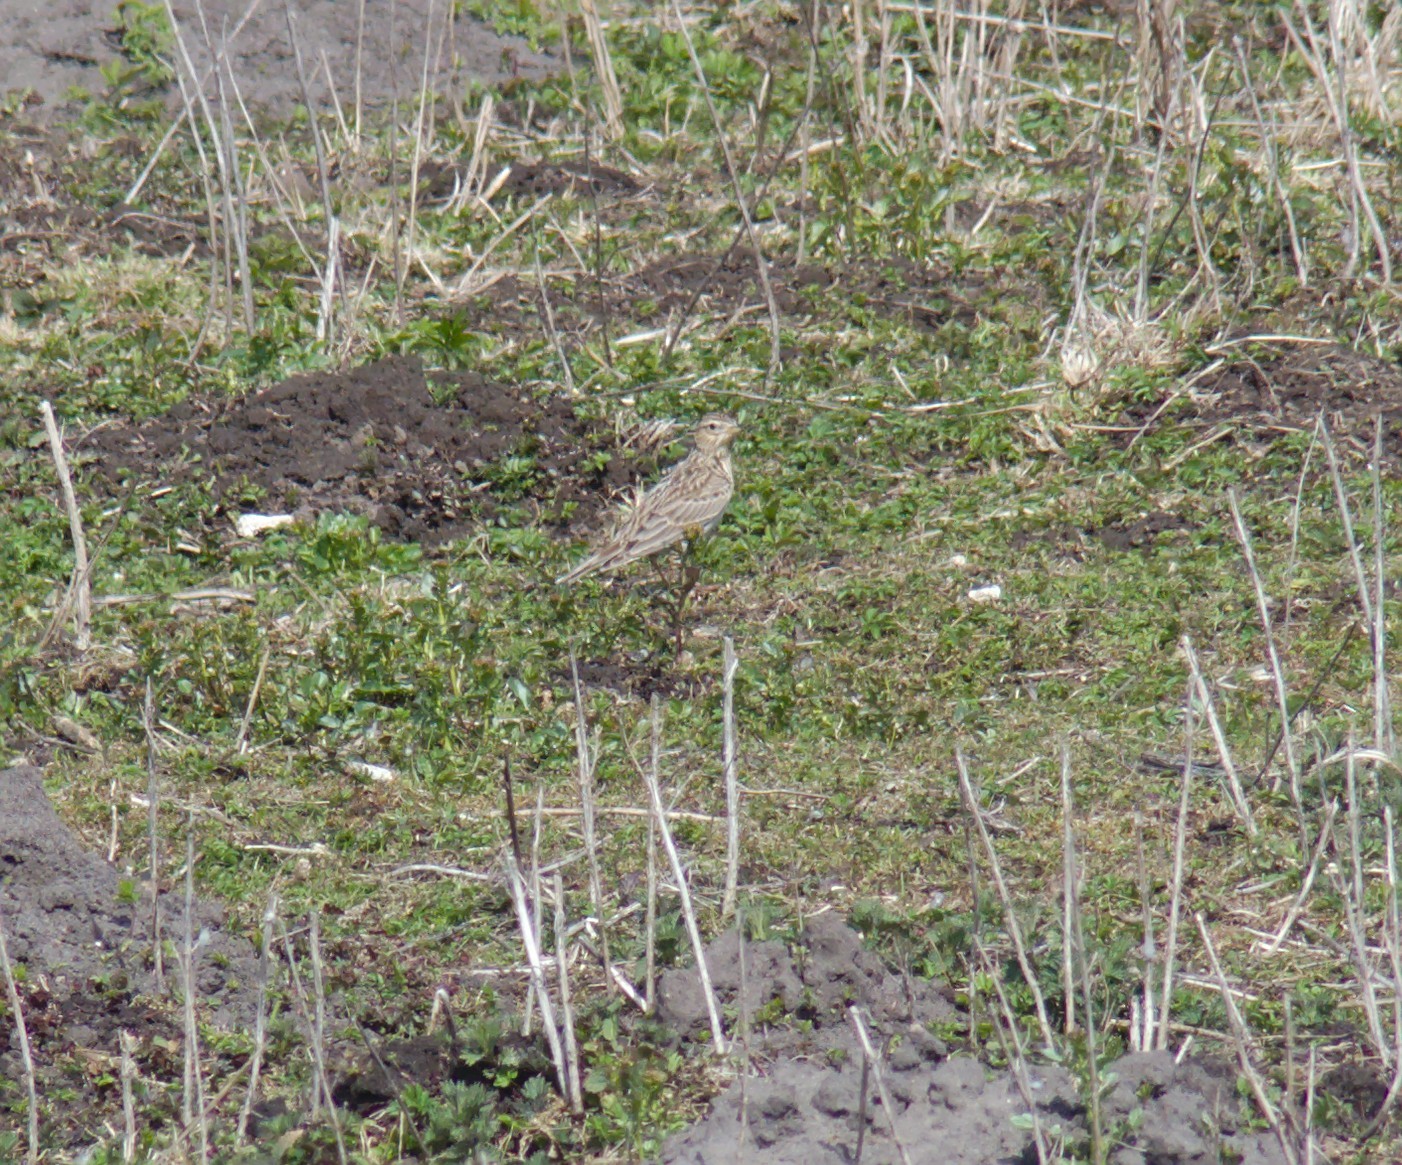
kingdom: Animalia
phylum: Chordata
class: Aves
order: Passeriformes
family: Alaudidae
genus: Alauda
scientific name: Alauda arvensis
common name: Eurasian skylark
